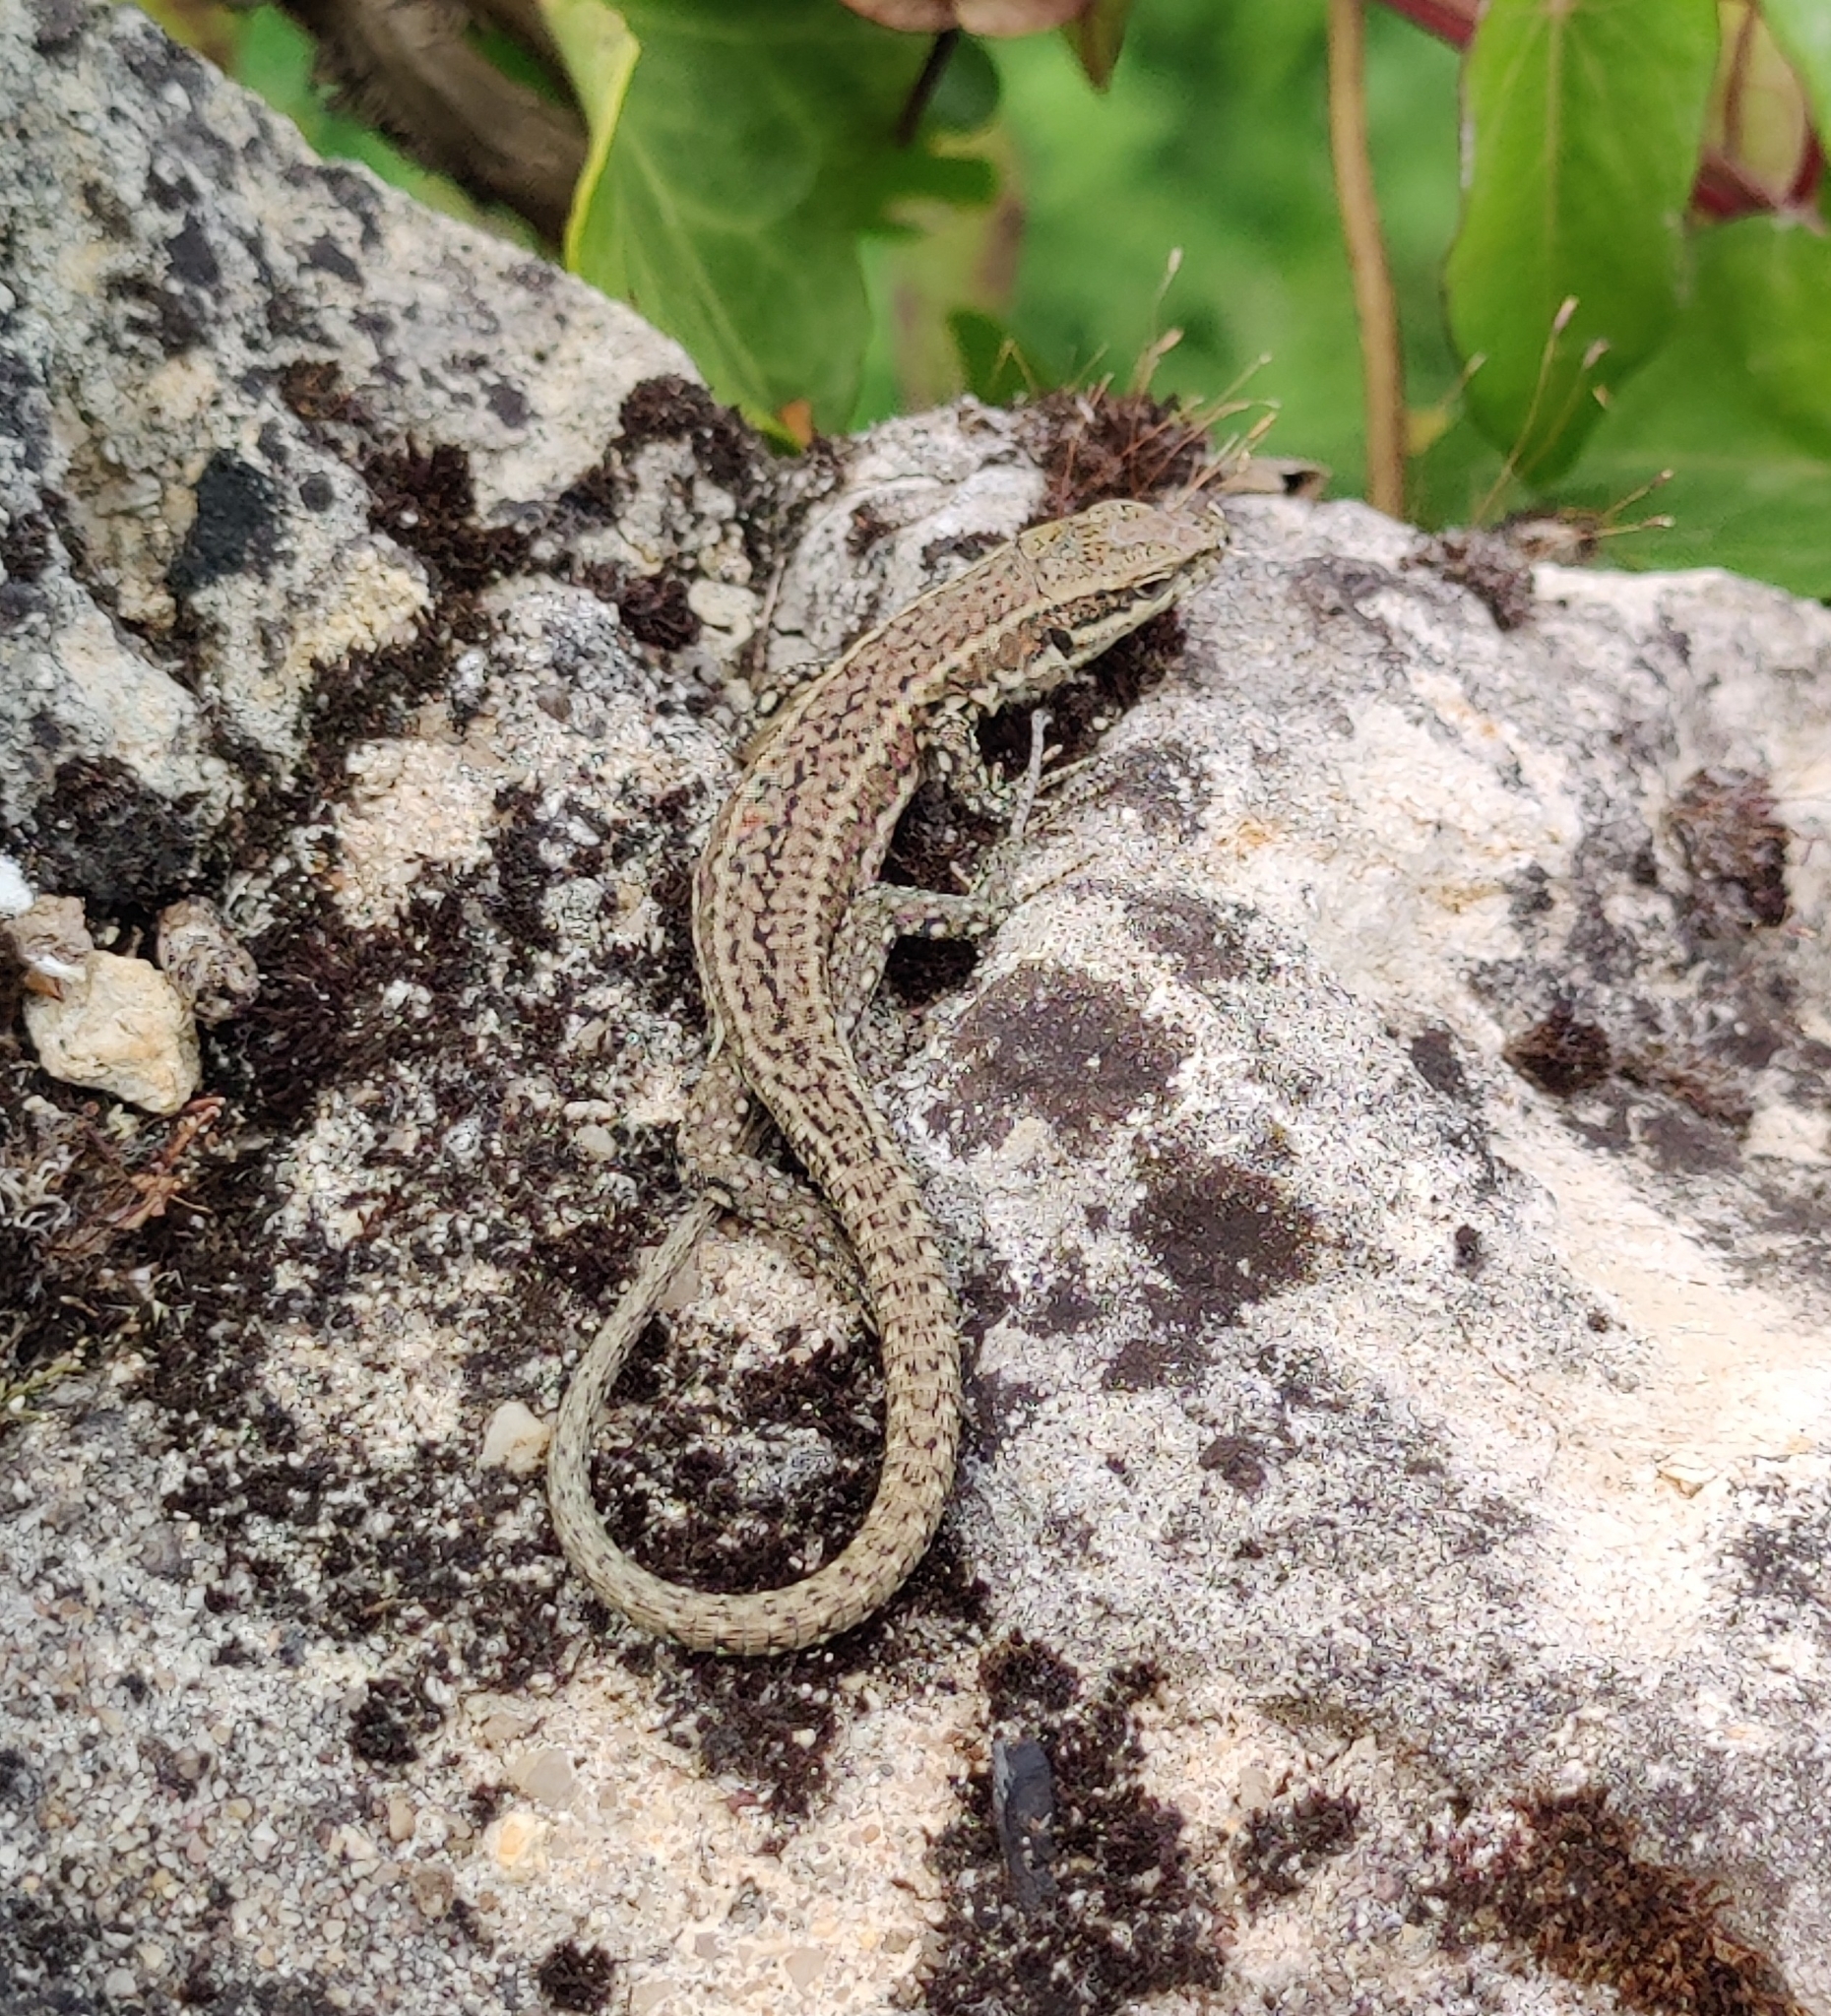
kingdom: Animalia
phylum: Chordata
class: Squamata
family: Lacertidae
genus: Podarcis
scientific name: Podarcis muralis
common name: Common wall lizard
